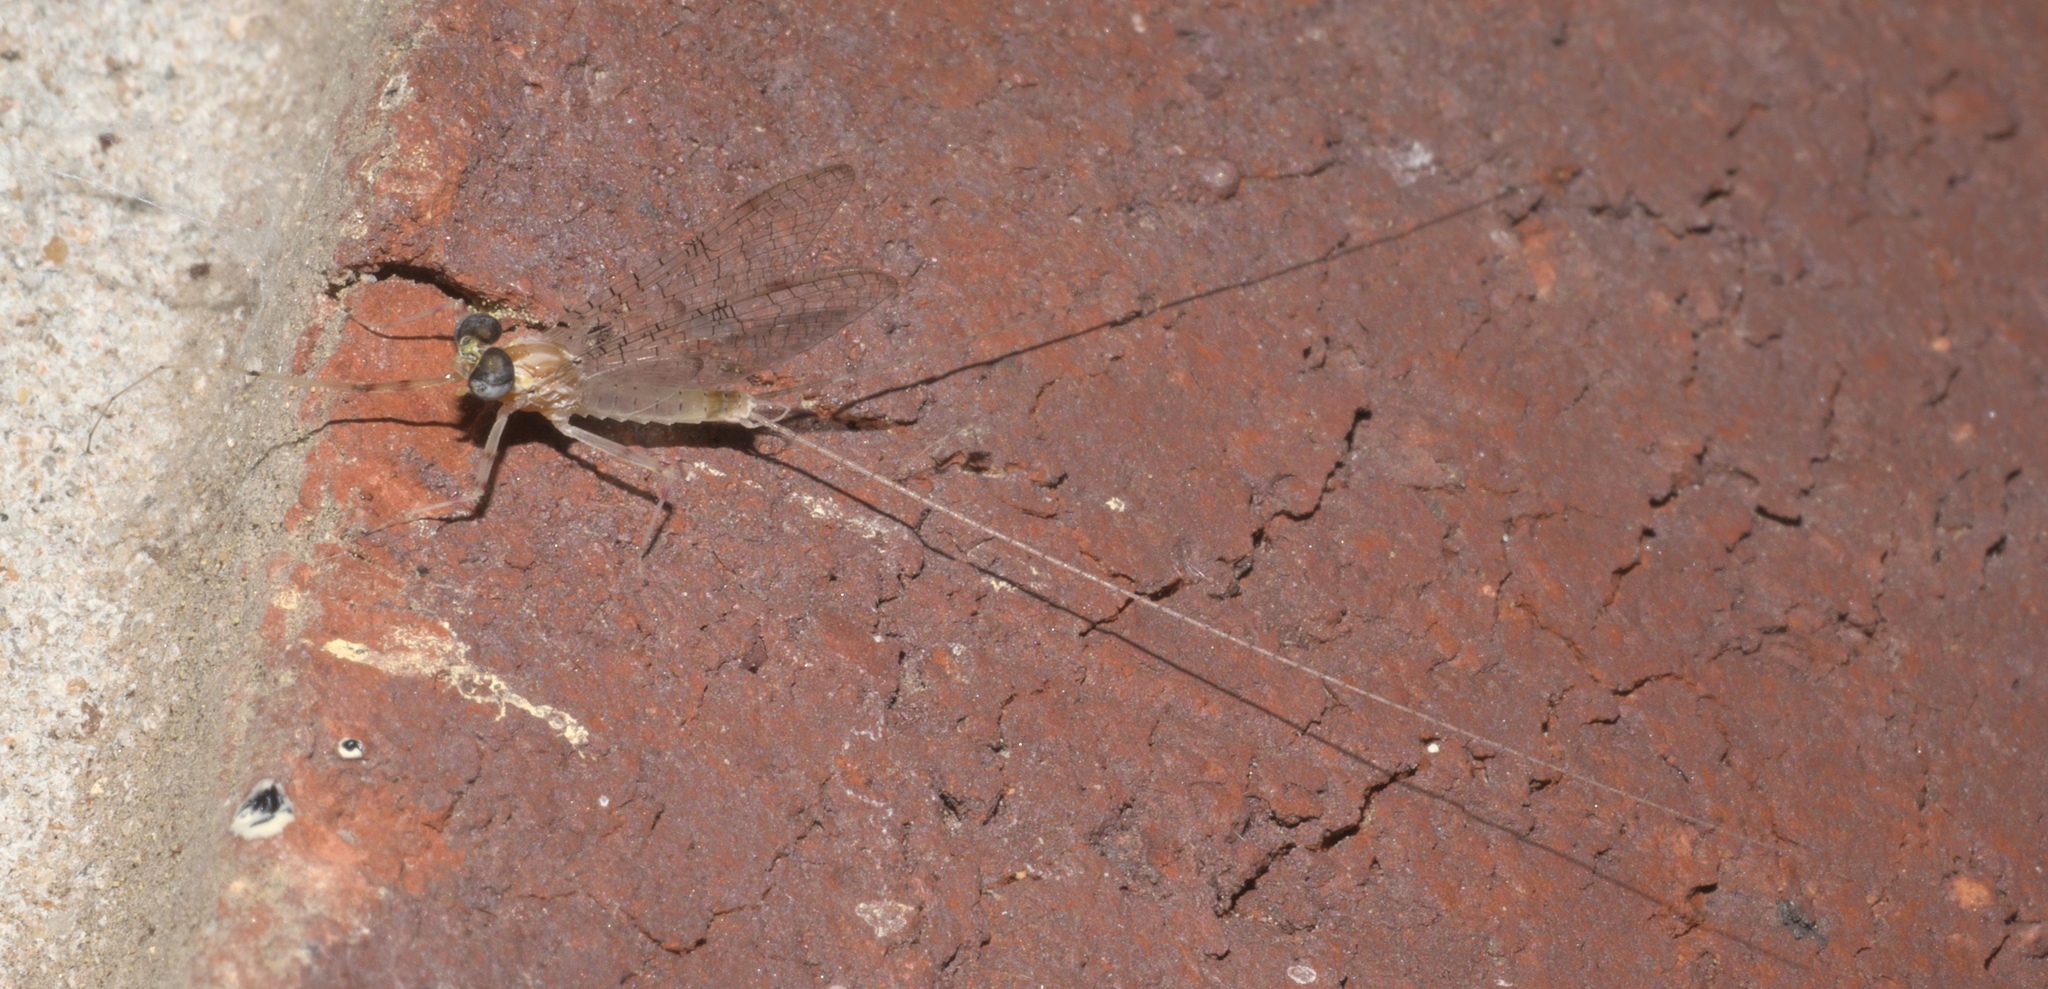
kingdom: Animalia
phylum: Arthropoda
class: Insecta
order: Ephemeroptera
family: Heptageniidae
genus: Stenonema
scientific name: Stenonema femoratum
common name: Dark cahill
